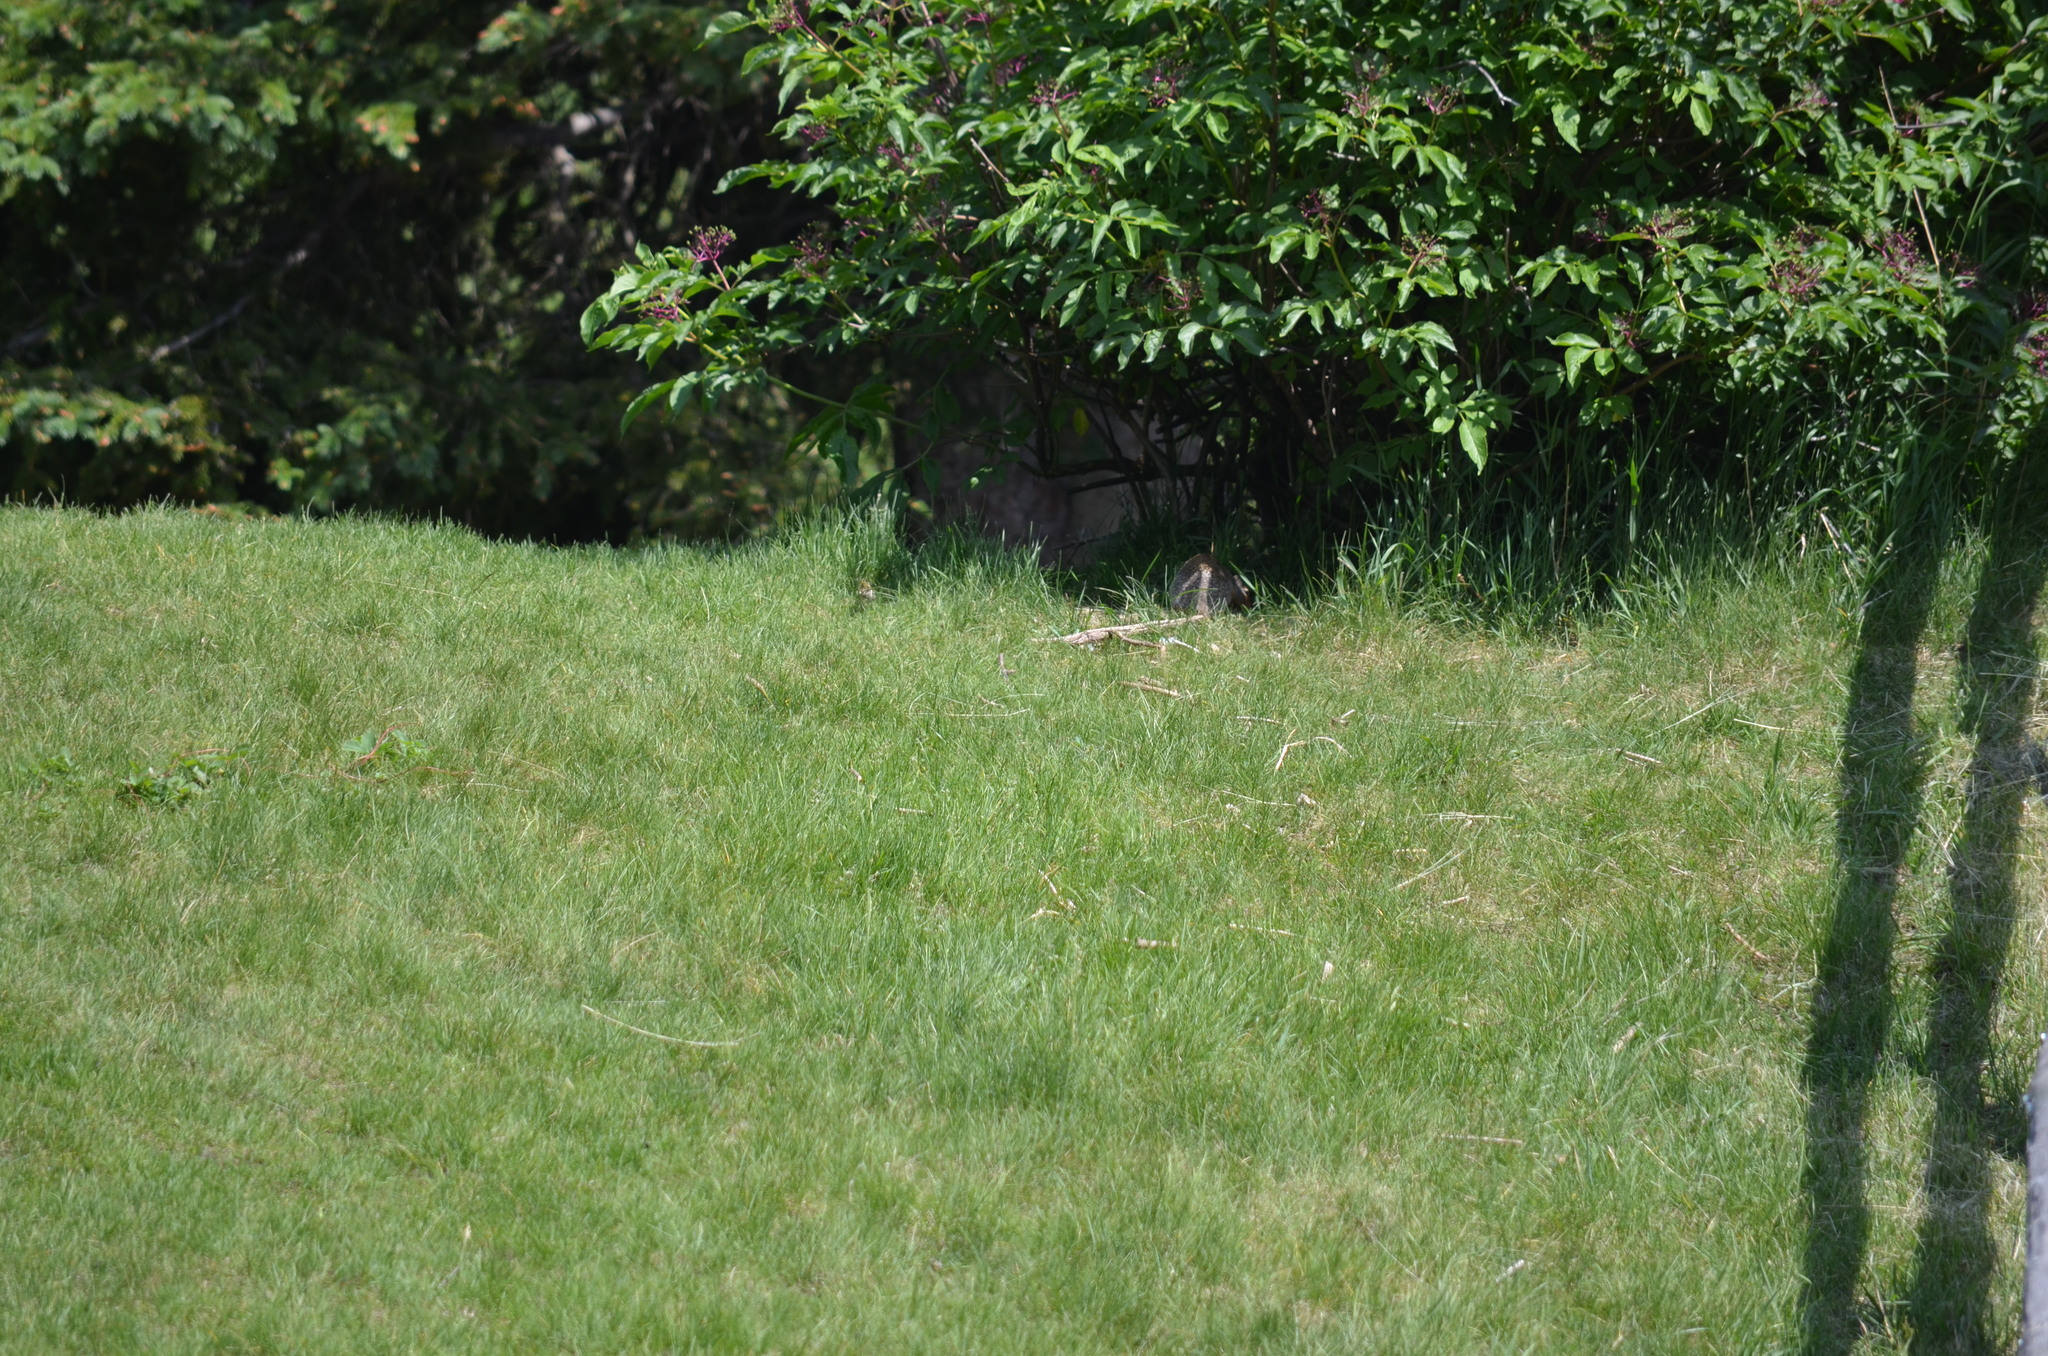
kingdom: Animalia
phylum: Chordata
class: Mammalia
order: Rodentia
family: Sciuridae
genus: Urocitellus
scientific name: Urocitellus columbianus
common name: Columbian ground squirrel
